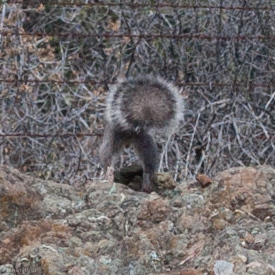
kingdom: Animalia
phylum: Chordata
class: Mammalia
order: Rodentia
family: Sciuridae
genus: Sciurus
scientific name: Sciurus griseus
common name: Western gray squirrel
